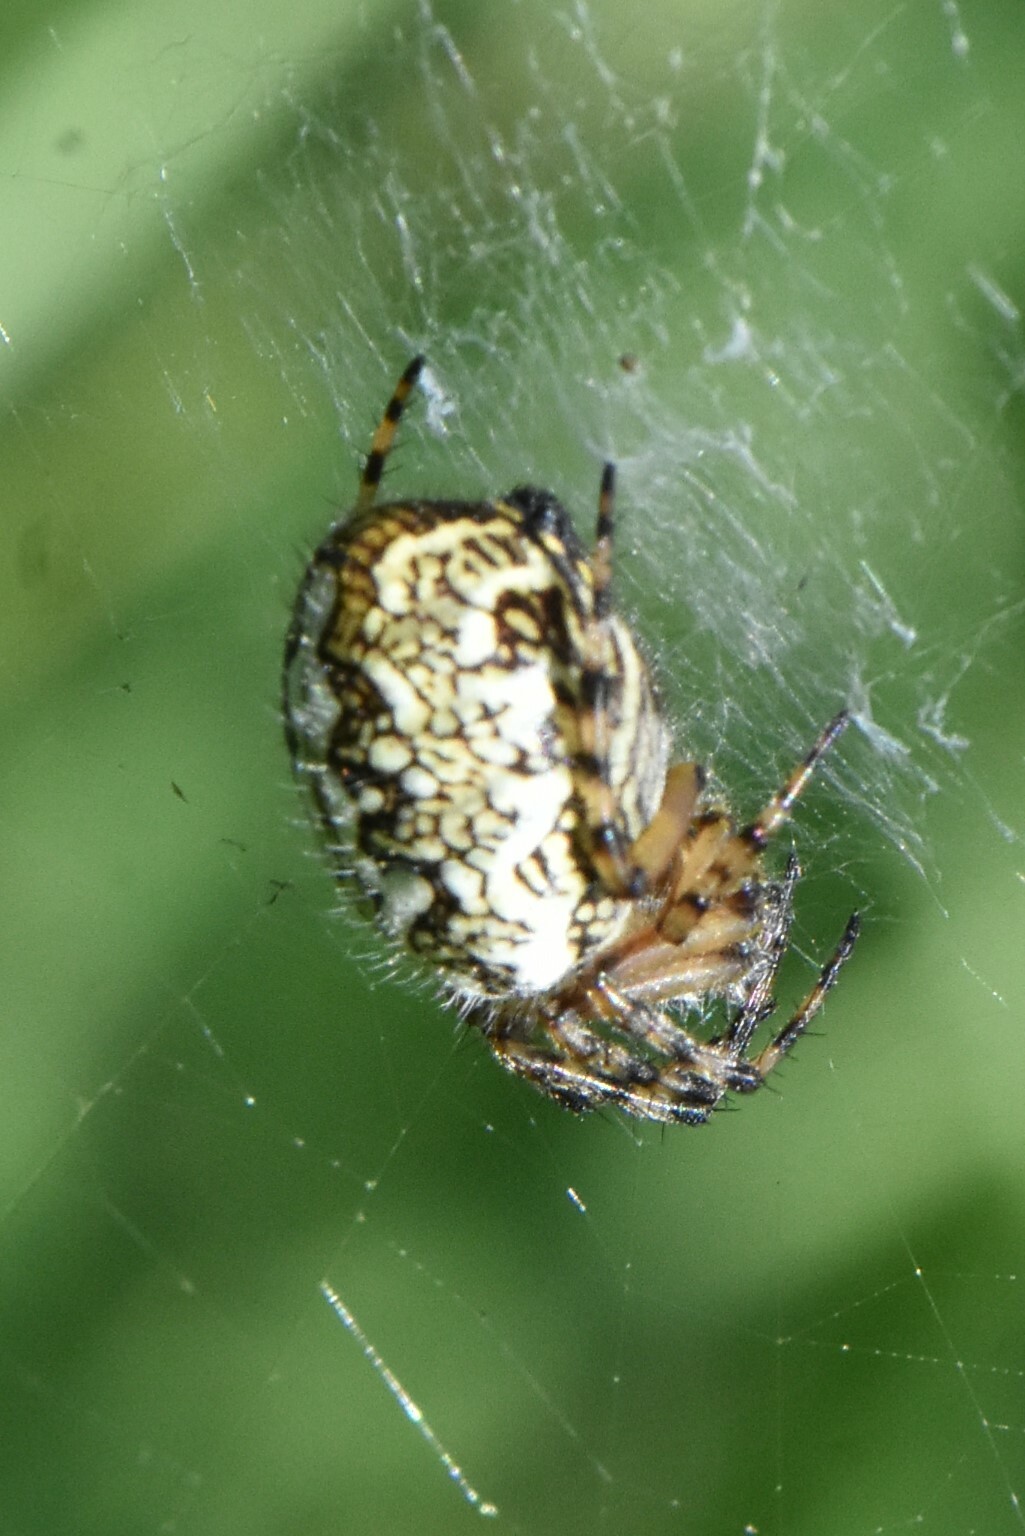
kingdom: Animalia
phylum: Arthropoda
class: Arachnida
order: Araneae
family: Araneidae
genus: Aculepeira
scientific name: Aculepeira ceropegia
